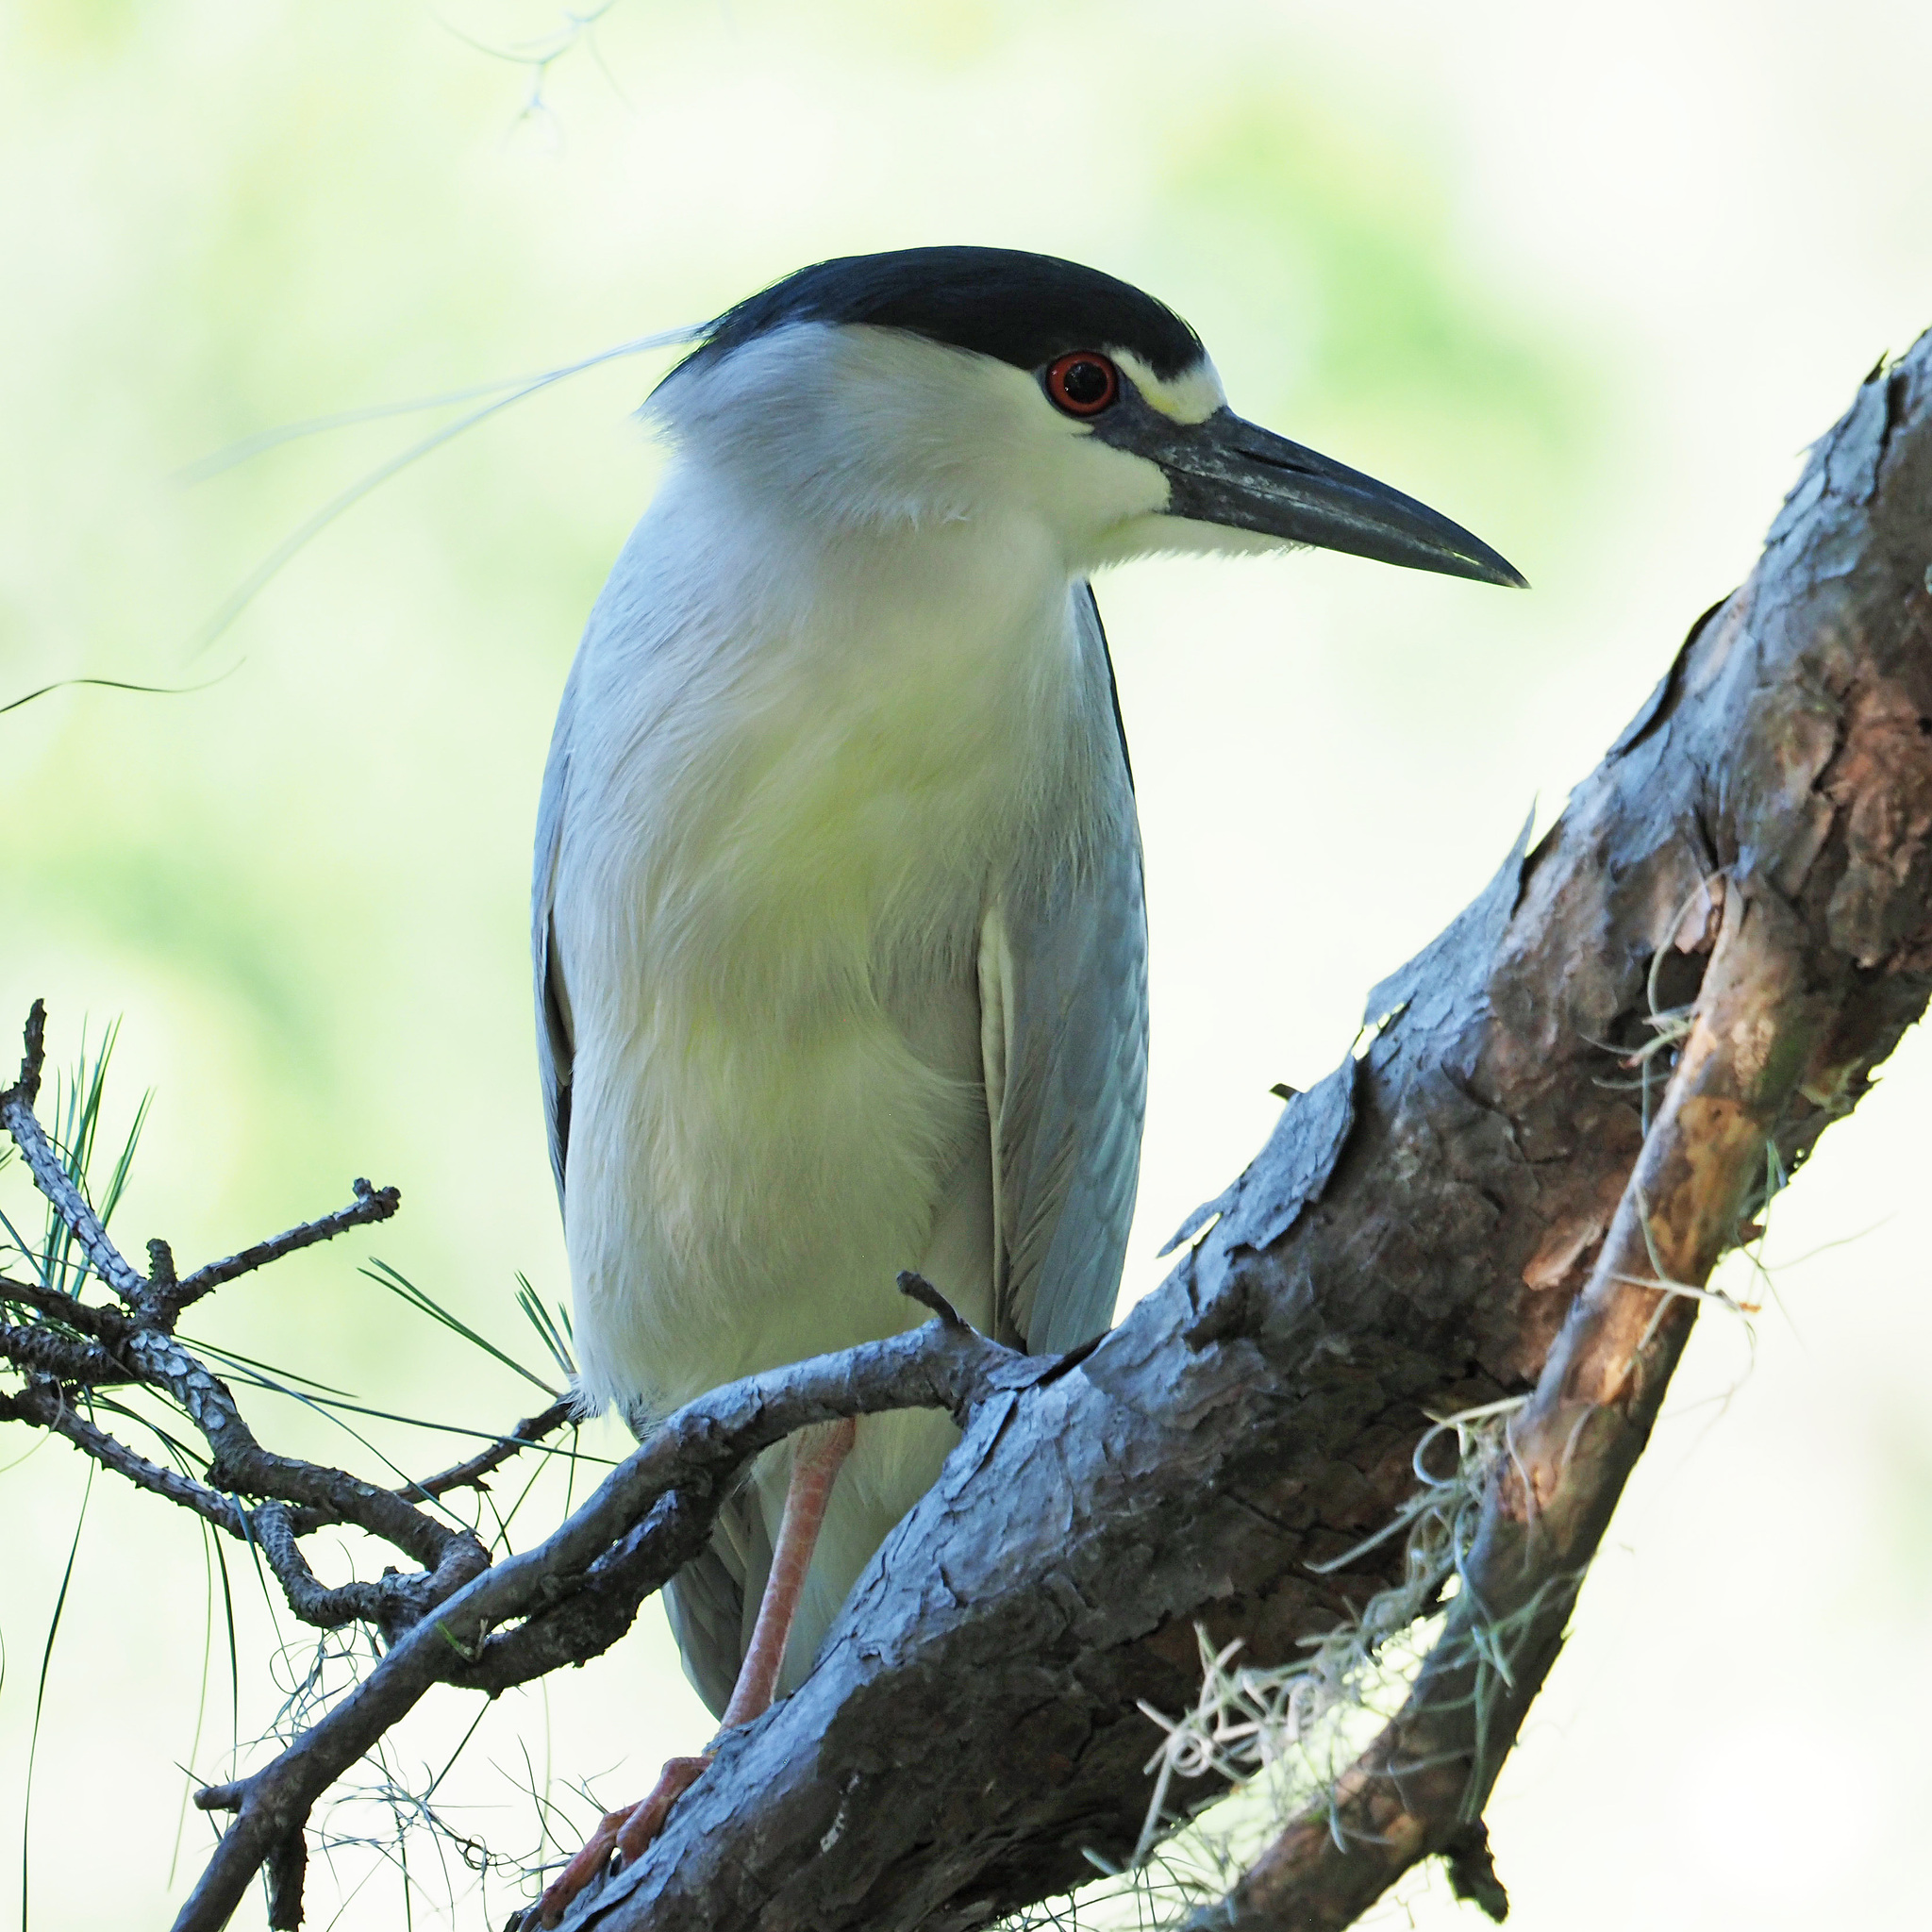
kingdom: Animalia
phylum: Chordata
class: Aves
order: Pelecaniformes
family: Ardeidae
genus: Nycticorax
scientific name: Nycticorax nycticorax
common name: Black-crowned night heron
